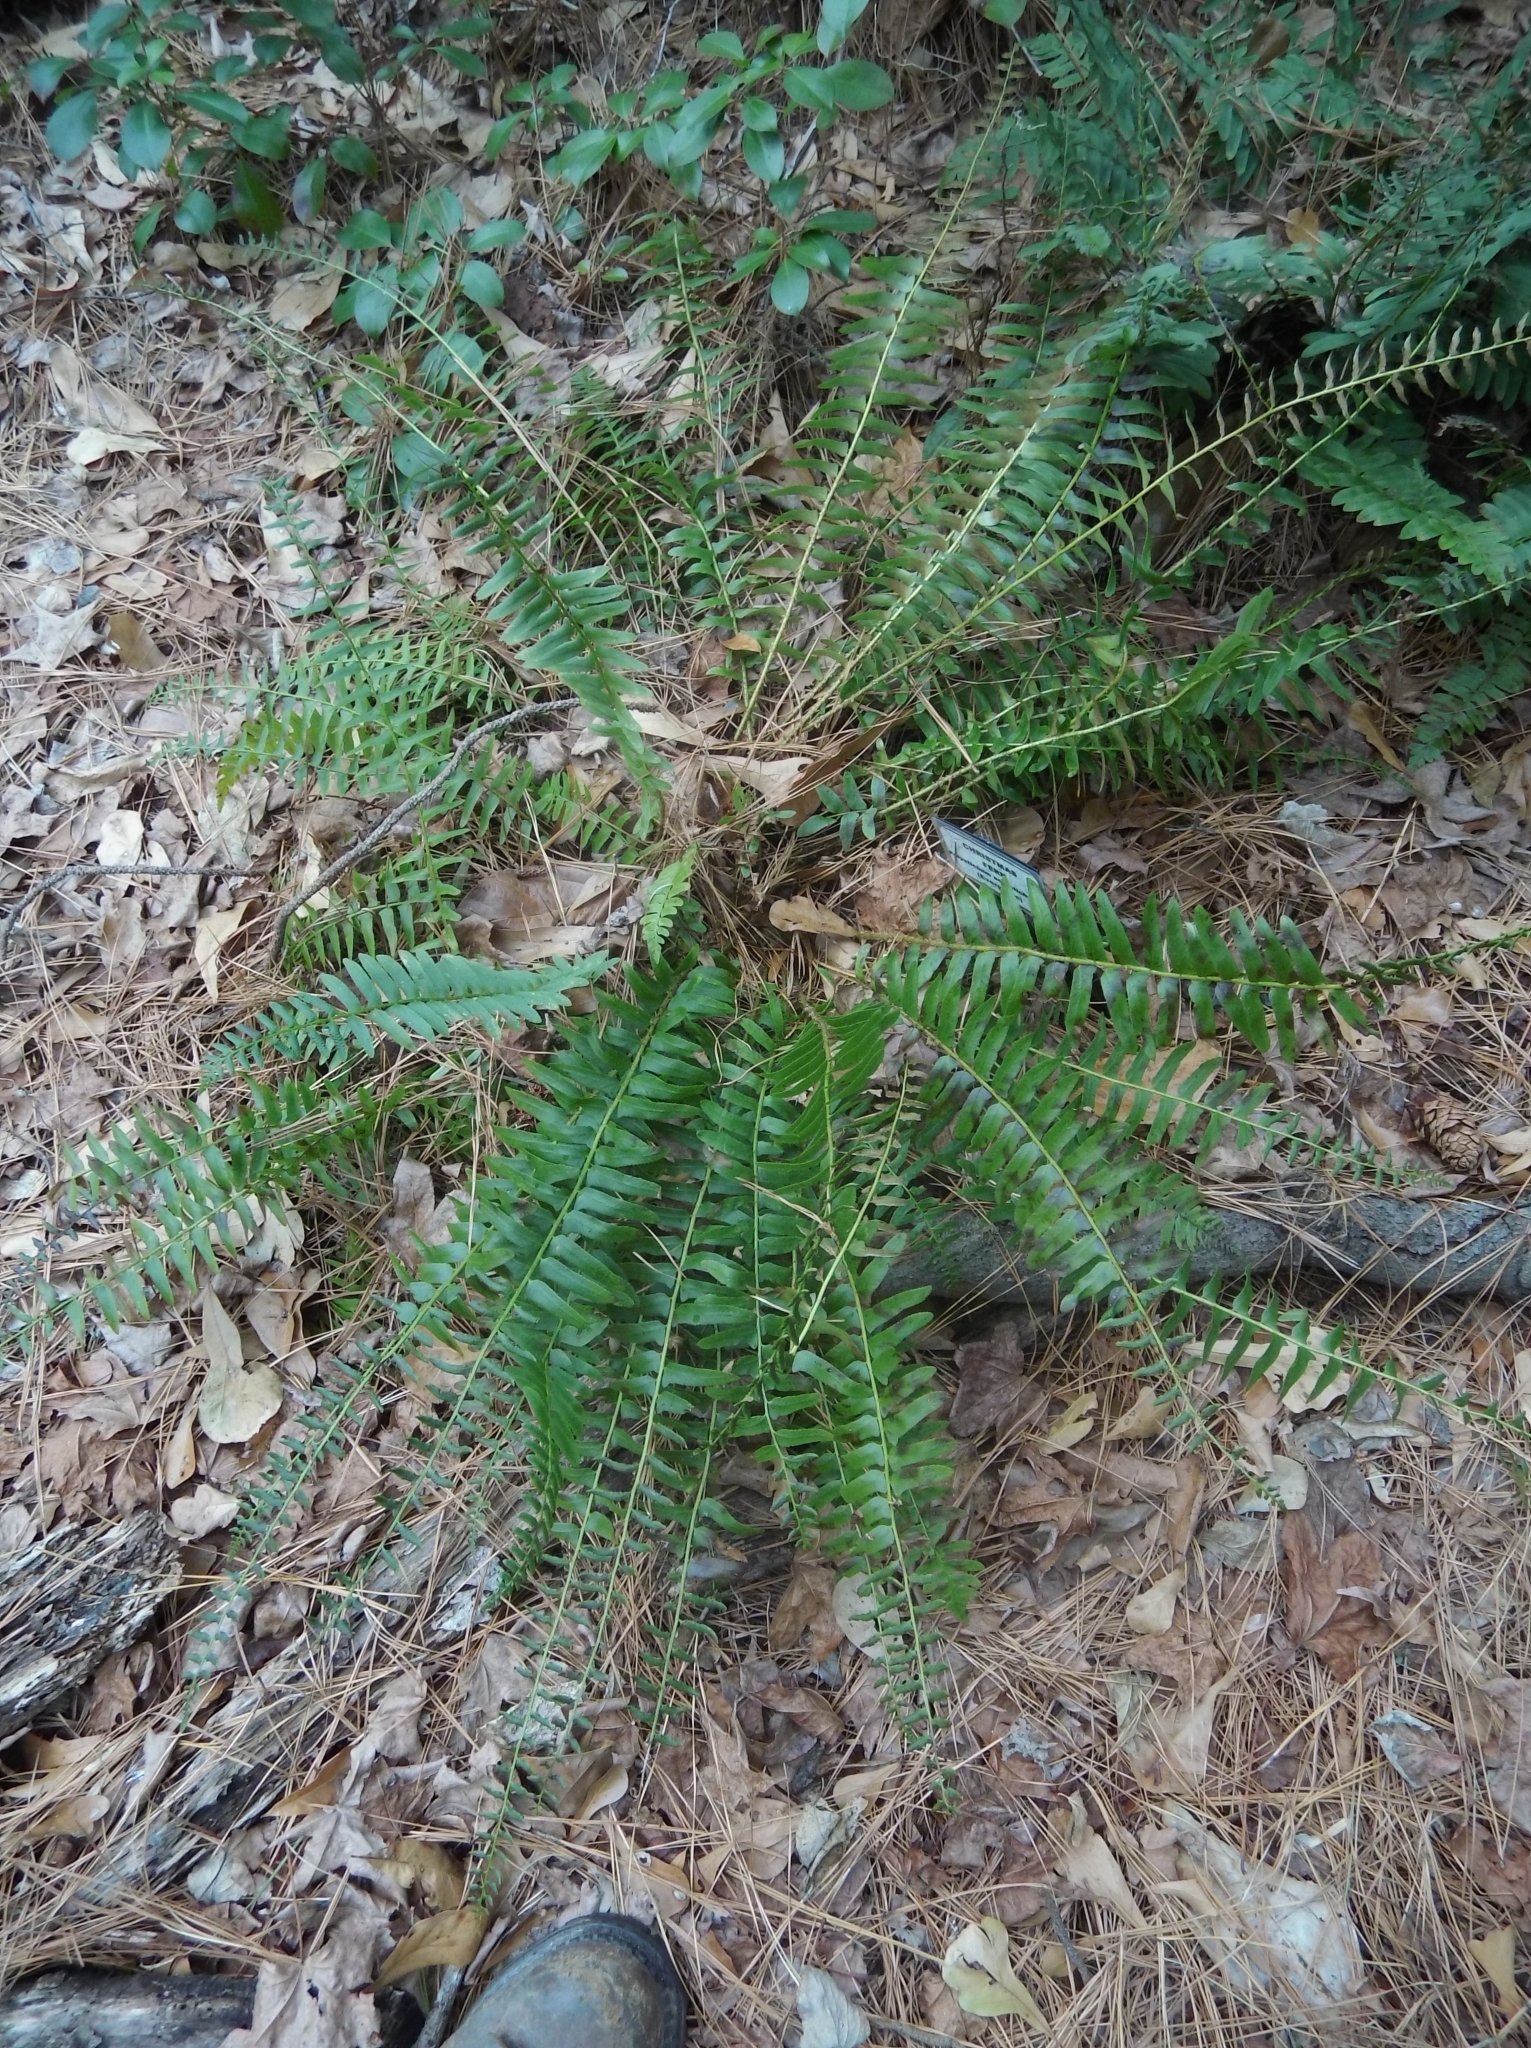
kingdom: Plantae
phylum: Tracheophyta
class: Polypodiopsida
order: Polypodiales
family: Dryopteridaceae
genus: Polystichum
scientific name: Polystichum acrostichoides
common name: Christmas fern
